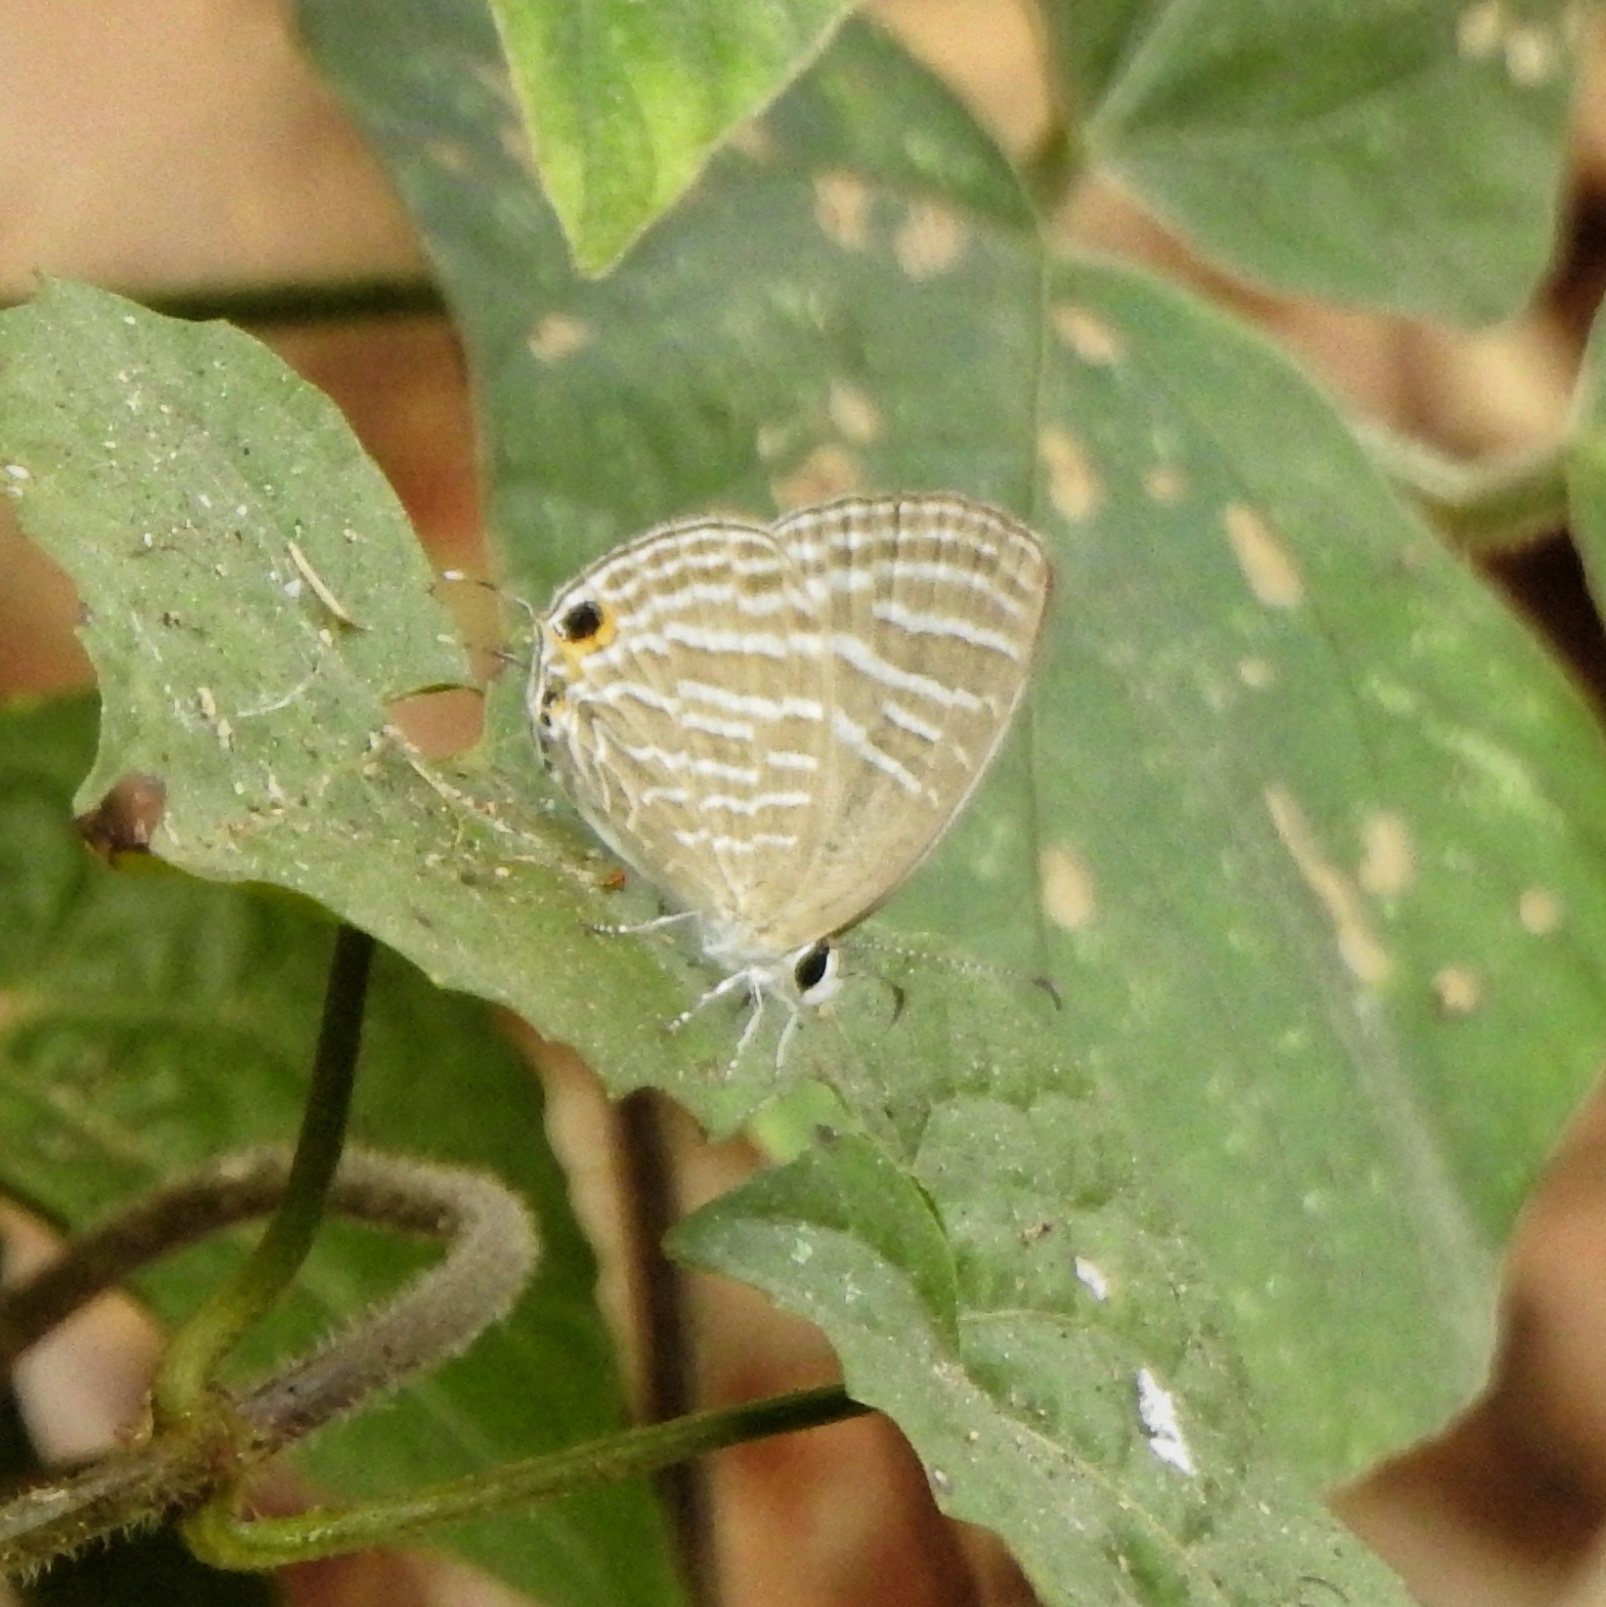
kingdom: Animalia
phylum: Arthropoda
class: Insecta
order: Lepidoptera
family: Lycaenidae
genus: Jamides
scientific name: Jamides celeno
